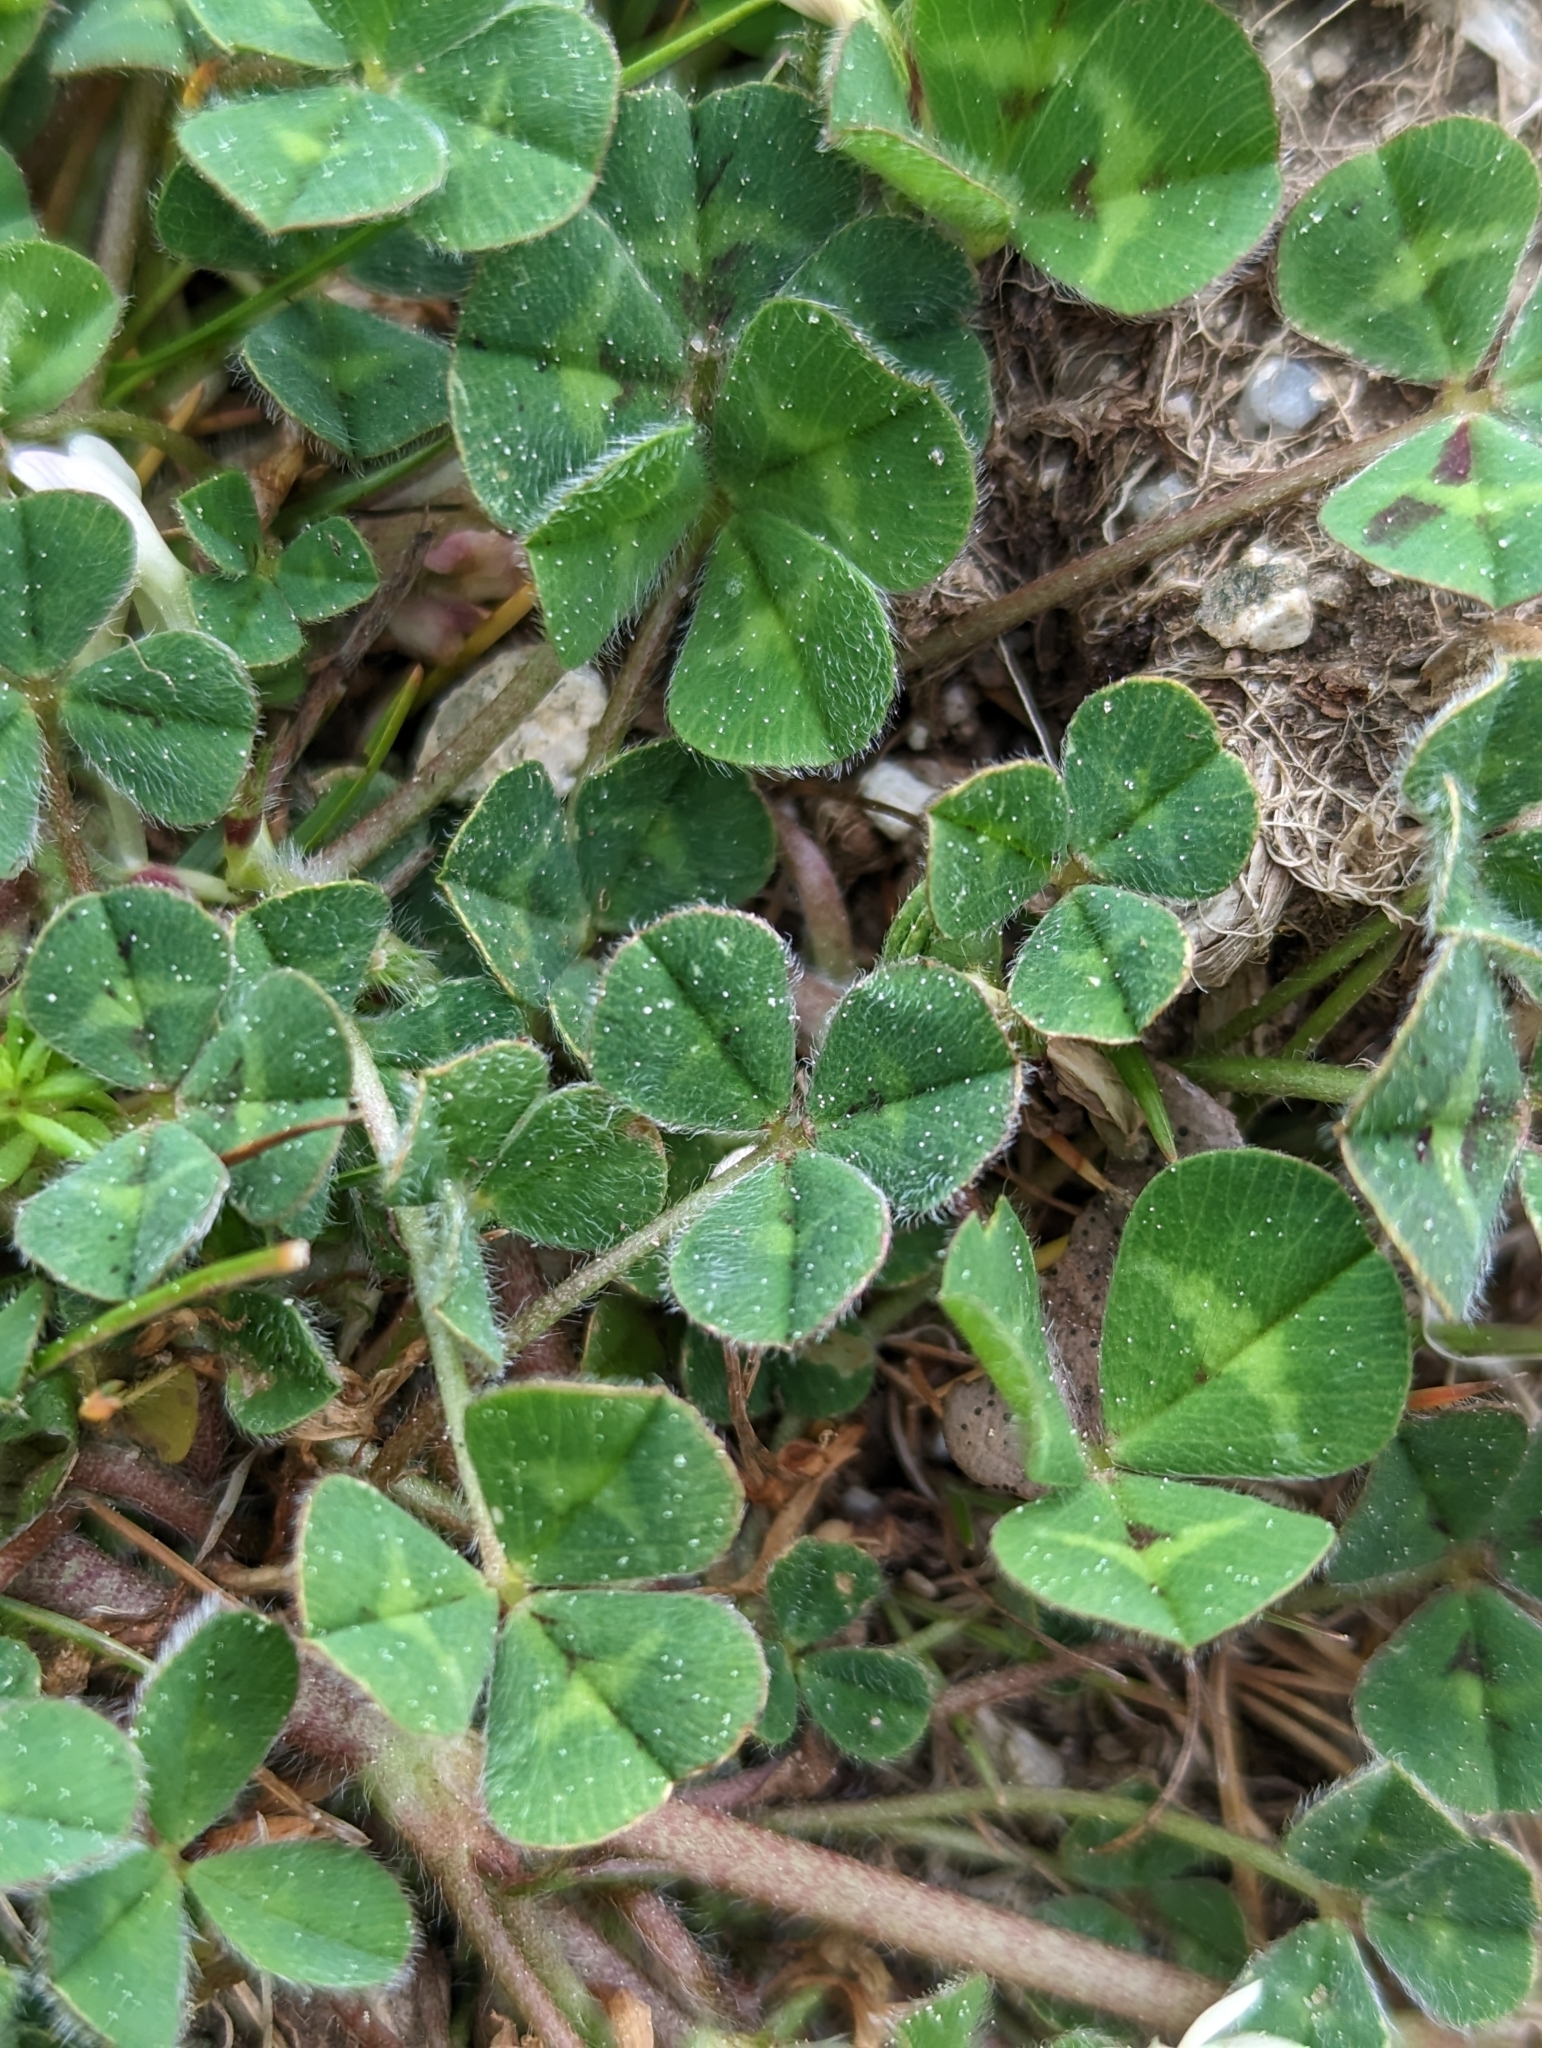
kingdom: Plantae
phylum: Tracheophyta
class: Magnoliopsida
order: Fabales
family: Fabaceae
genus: Trifolium
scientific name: Trifolium subterraneum
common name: Subterranean clover
